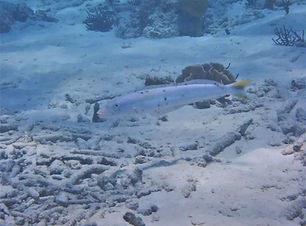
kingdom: Animalia
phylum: Chordata
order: Perciformes
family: Malacanthidae
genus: Malacanthus
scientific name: Malacanthus plumieri
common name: Sand tilefish
